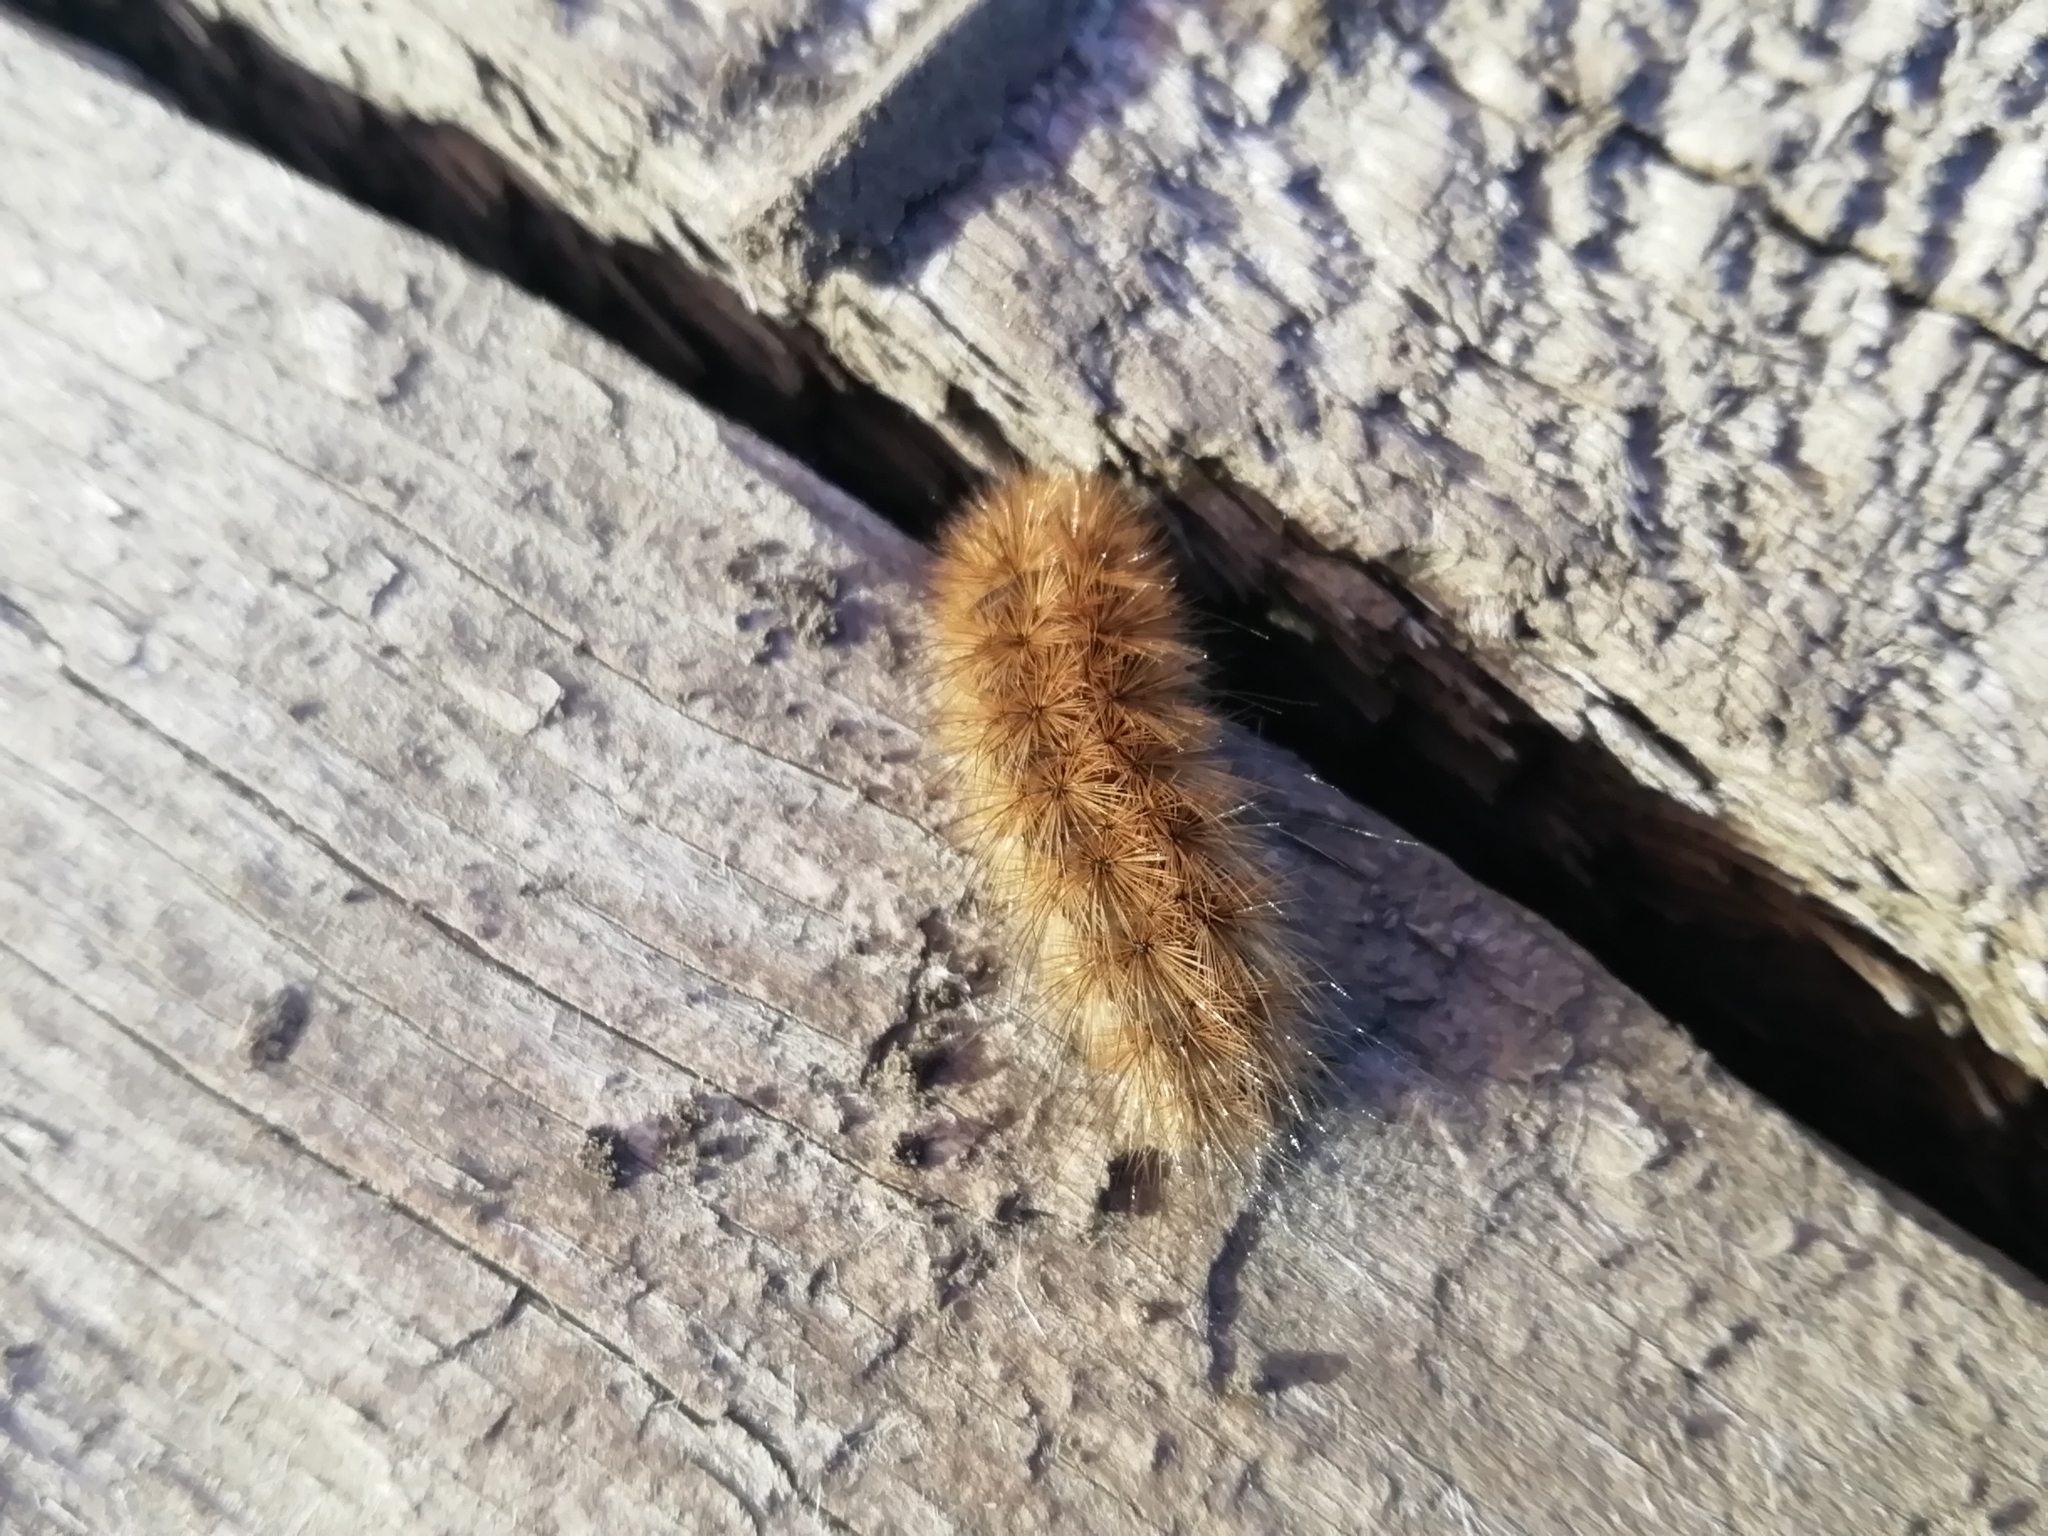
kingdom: Animalia
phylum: Arthropoda
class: Insecta
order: Lepidoptera
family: Erebidae
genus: Phragmatobia
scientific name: Phragmatobia fuliginosa
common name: Ruby tiger
